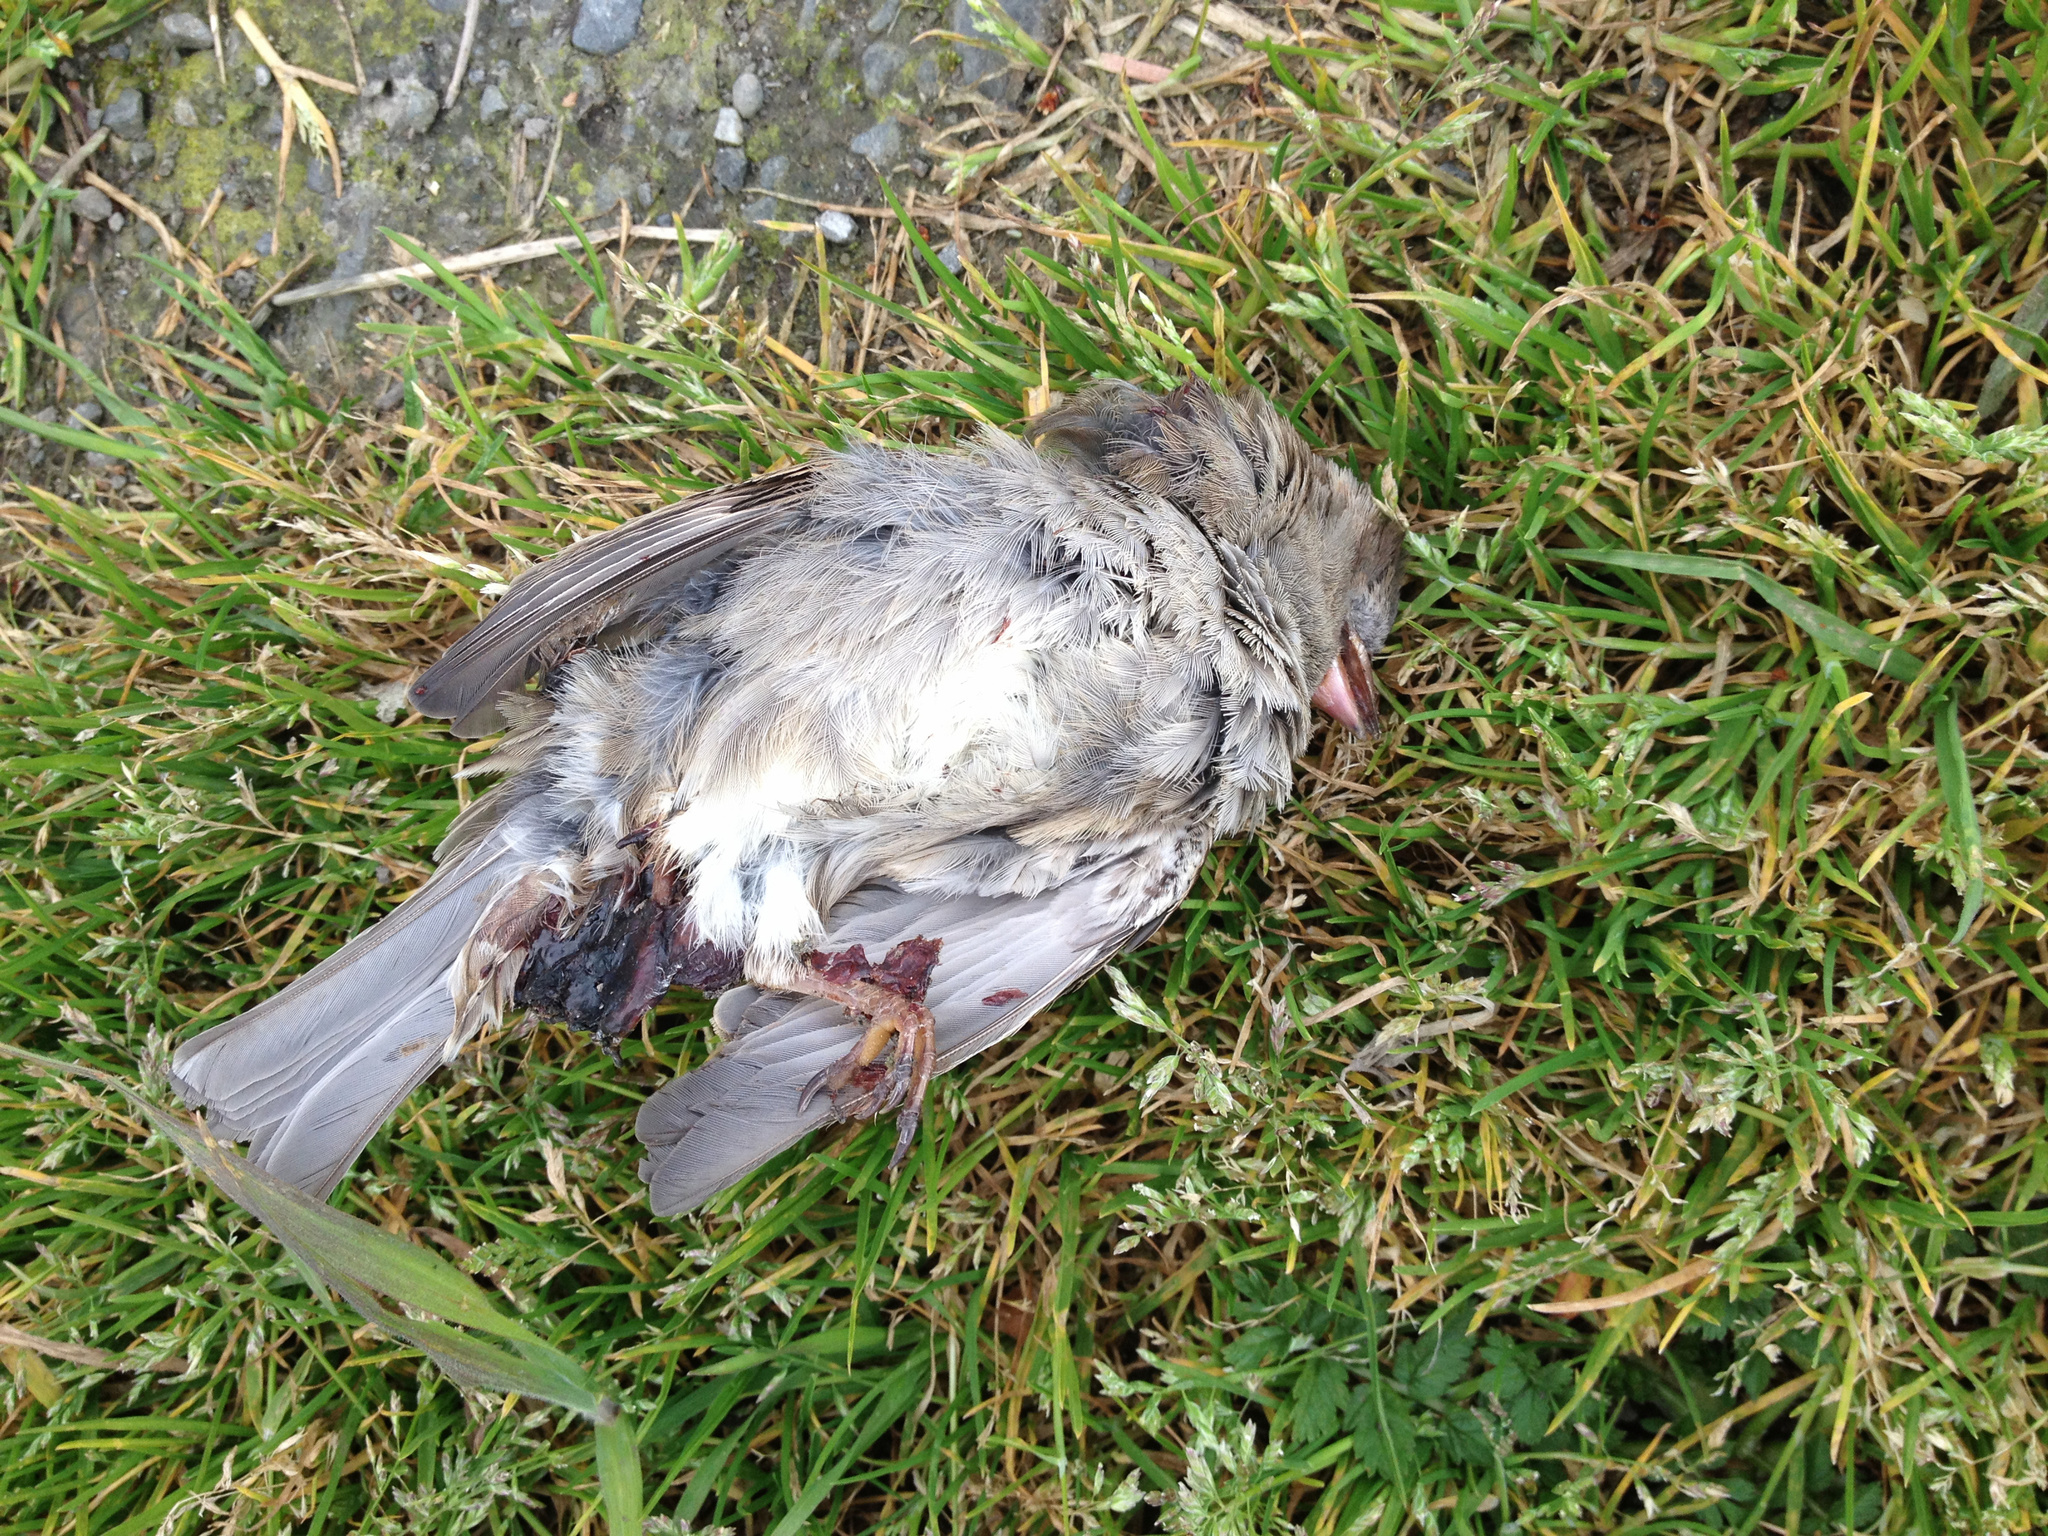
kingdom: Animalia
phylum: Chordata
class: Aves
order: Passeriformes
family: Passeridae
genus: Passer
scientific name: Passer domesticus
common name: House sparrow
